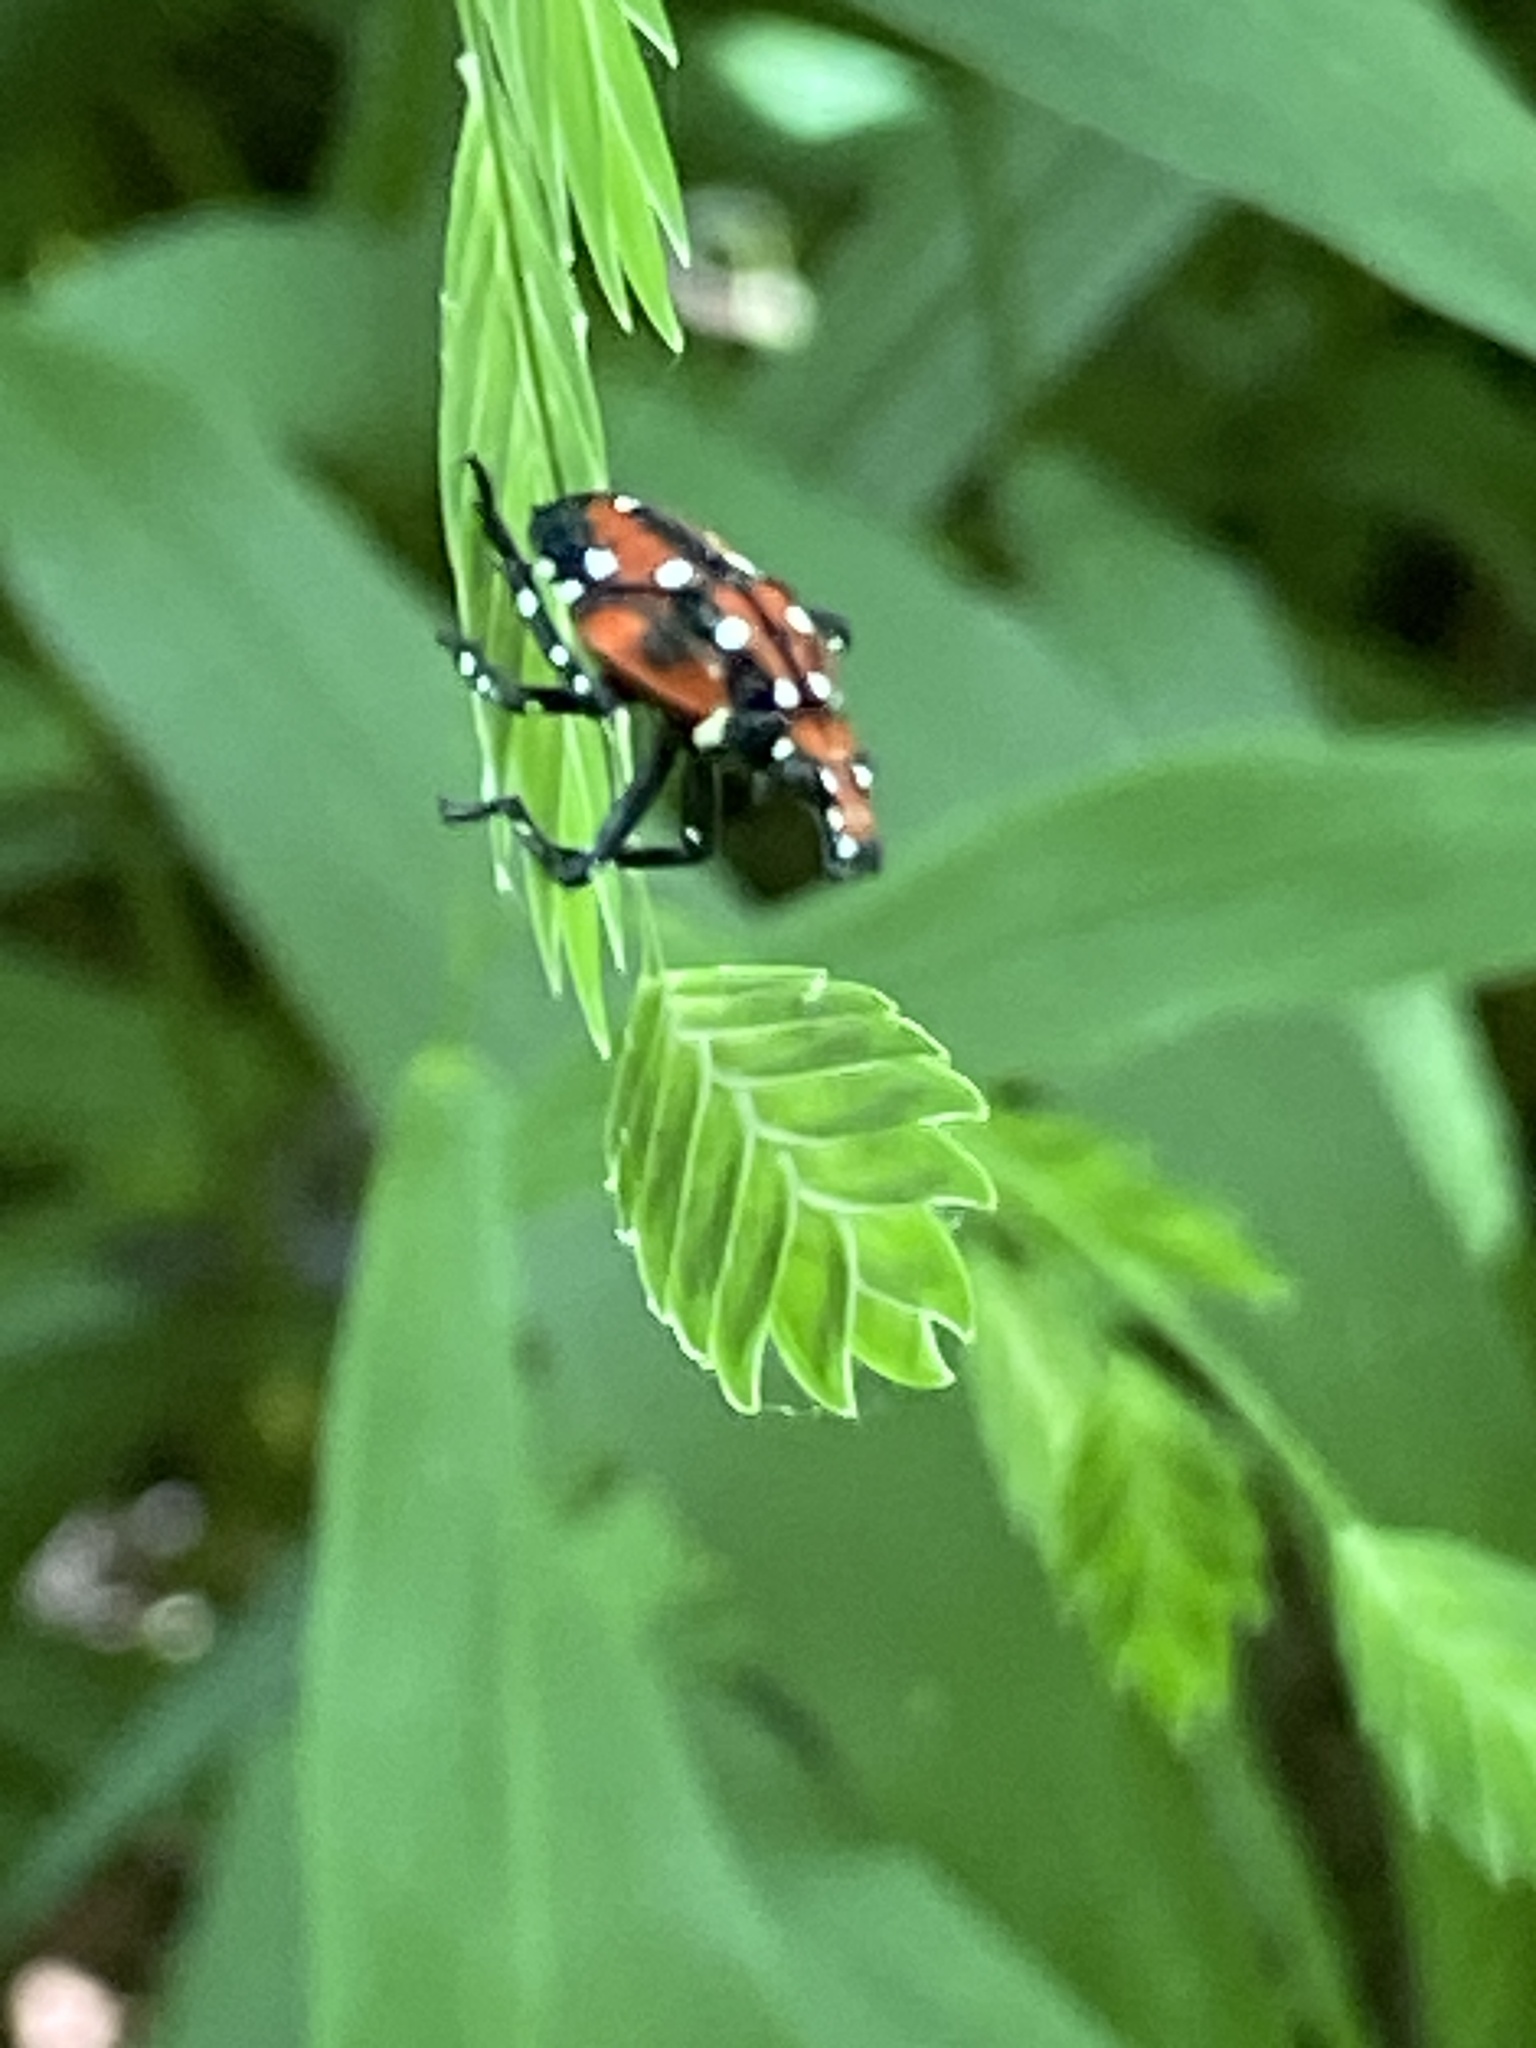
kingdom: Animalia
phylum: Arthropoda
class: Insecta
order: Hemiptera
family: Fulgoridae
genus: Lycorma
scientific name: Lycorma delicatula
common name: Spotted lanternfly
